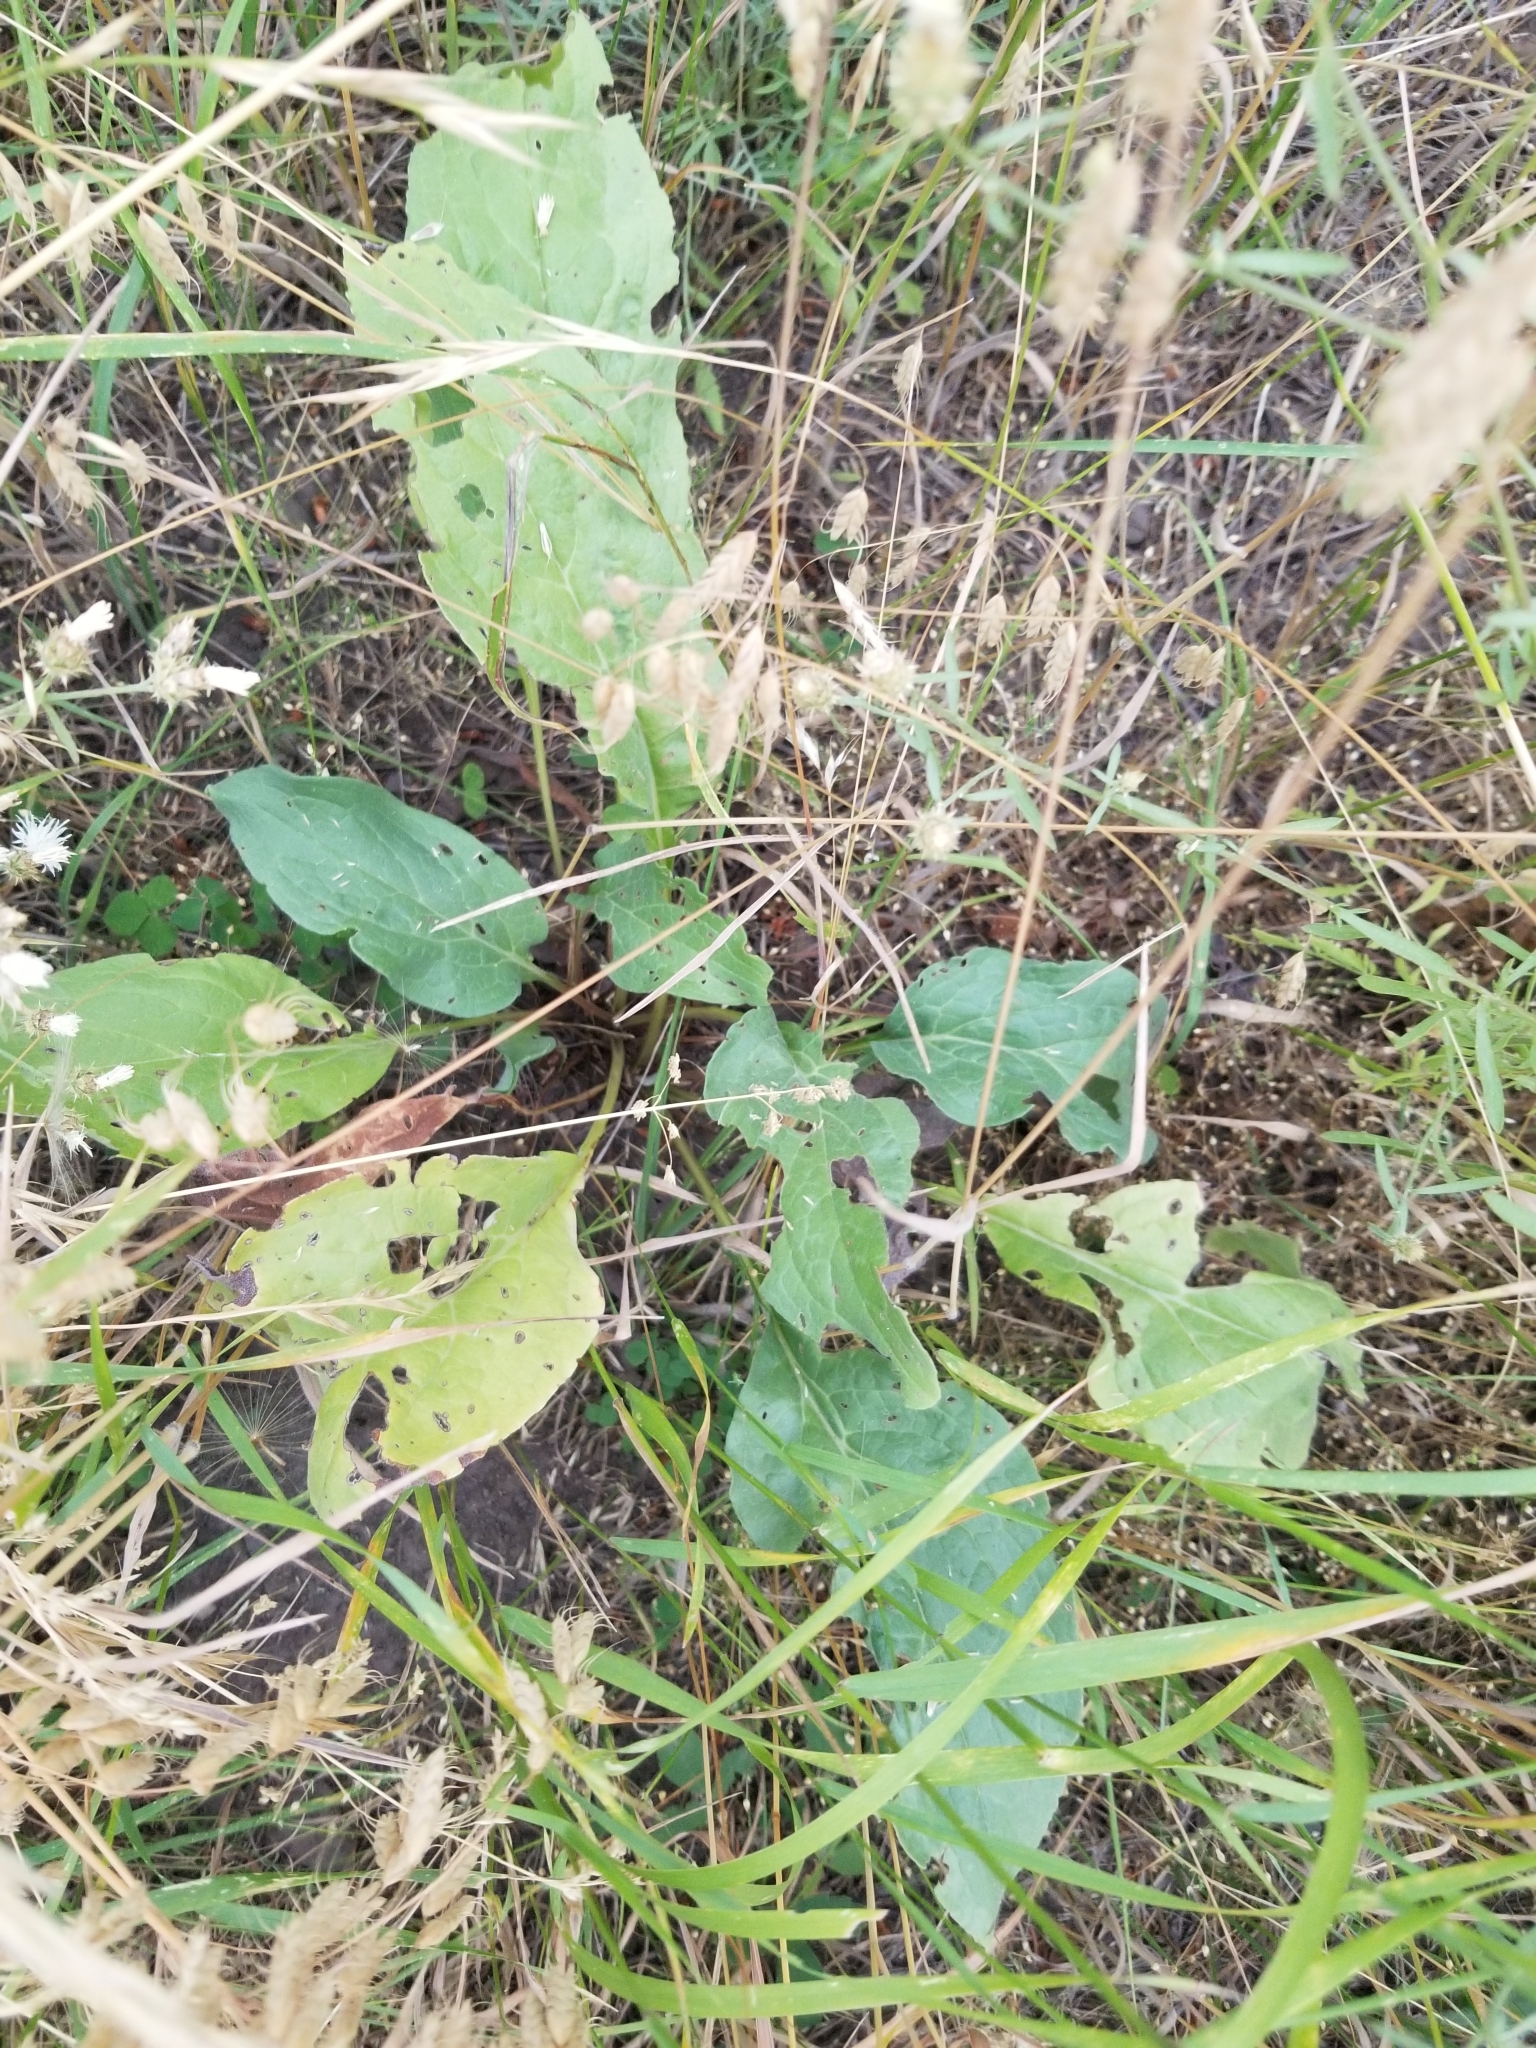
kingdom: Plantae
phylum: Tracheophyta
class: Magnoliopsida
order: Boraginales
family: Boraginaceae
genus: Cynoglossum
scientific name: Cynoglossum officinale
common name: Hound's-tongue
